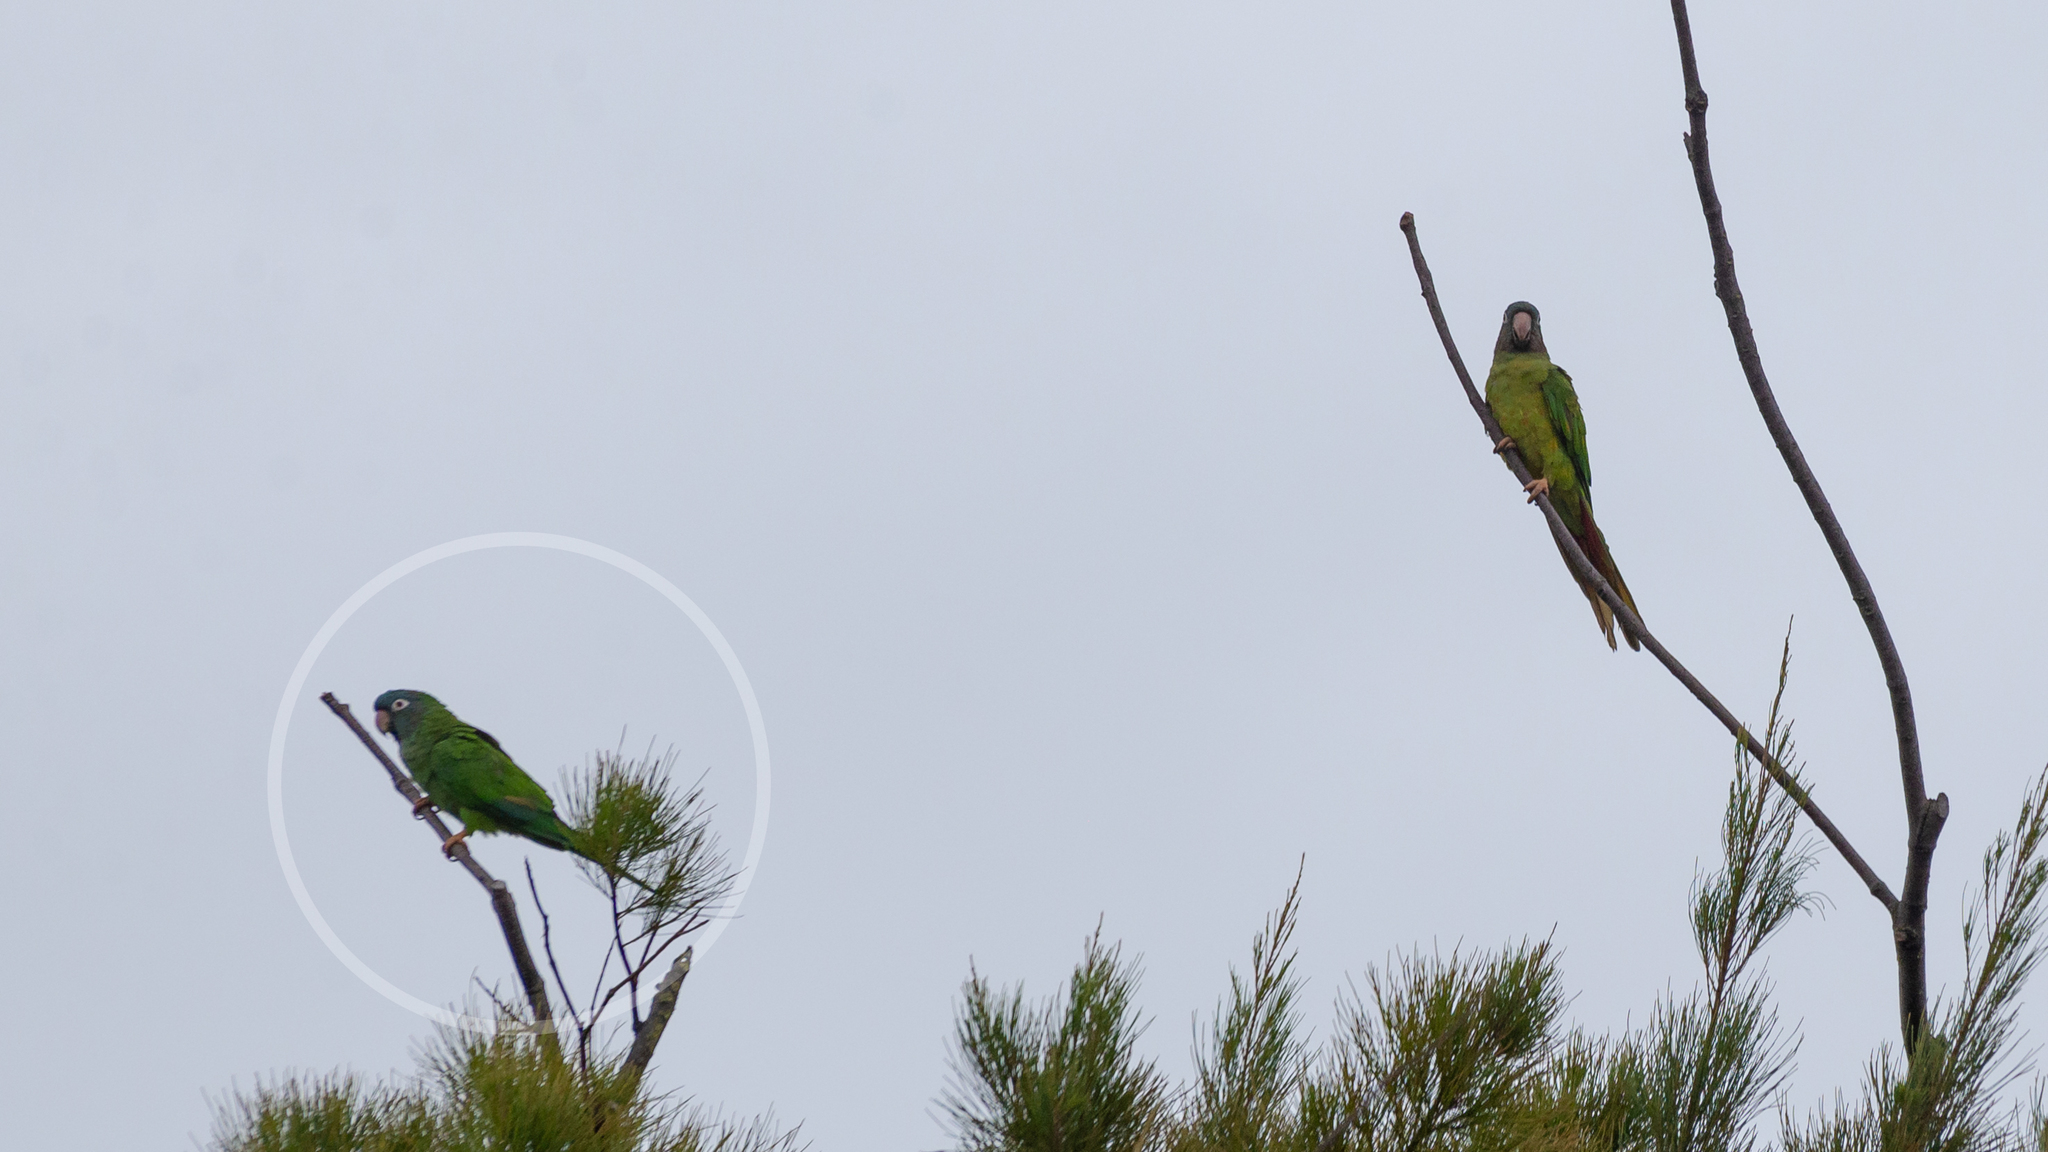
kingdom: Animalia
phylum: Chordata
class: Aves
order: Psittaciformes
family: Psittacidae
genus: Aratinga
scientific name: Aratinga acuticaudata
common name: Blue-crowned parakeet
